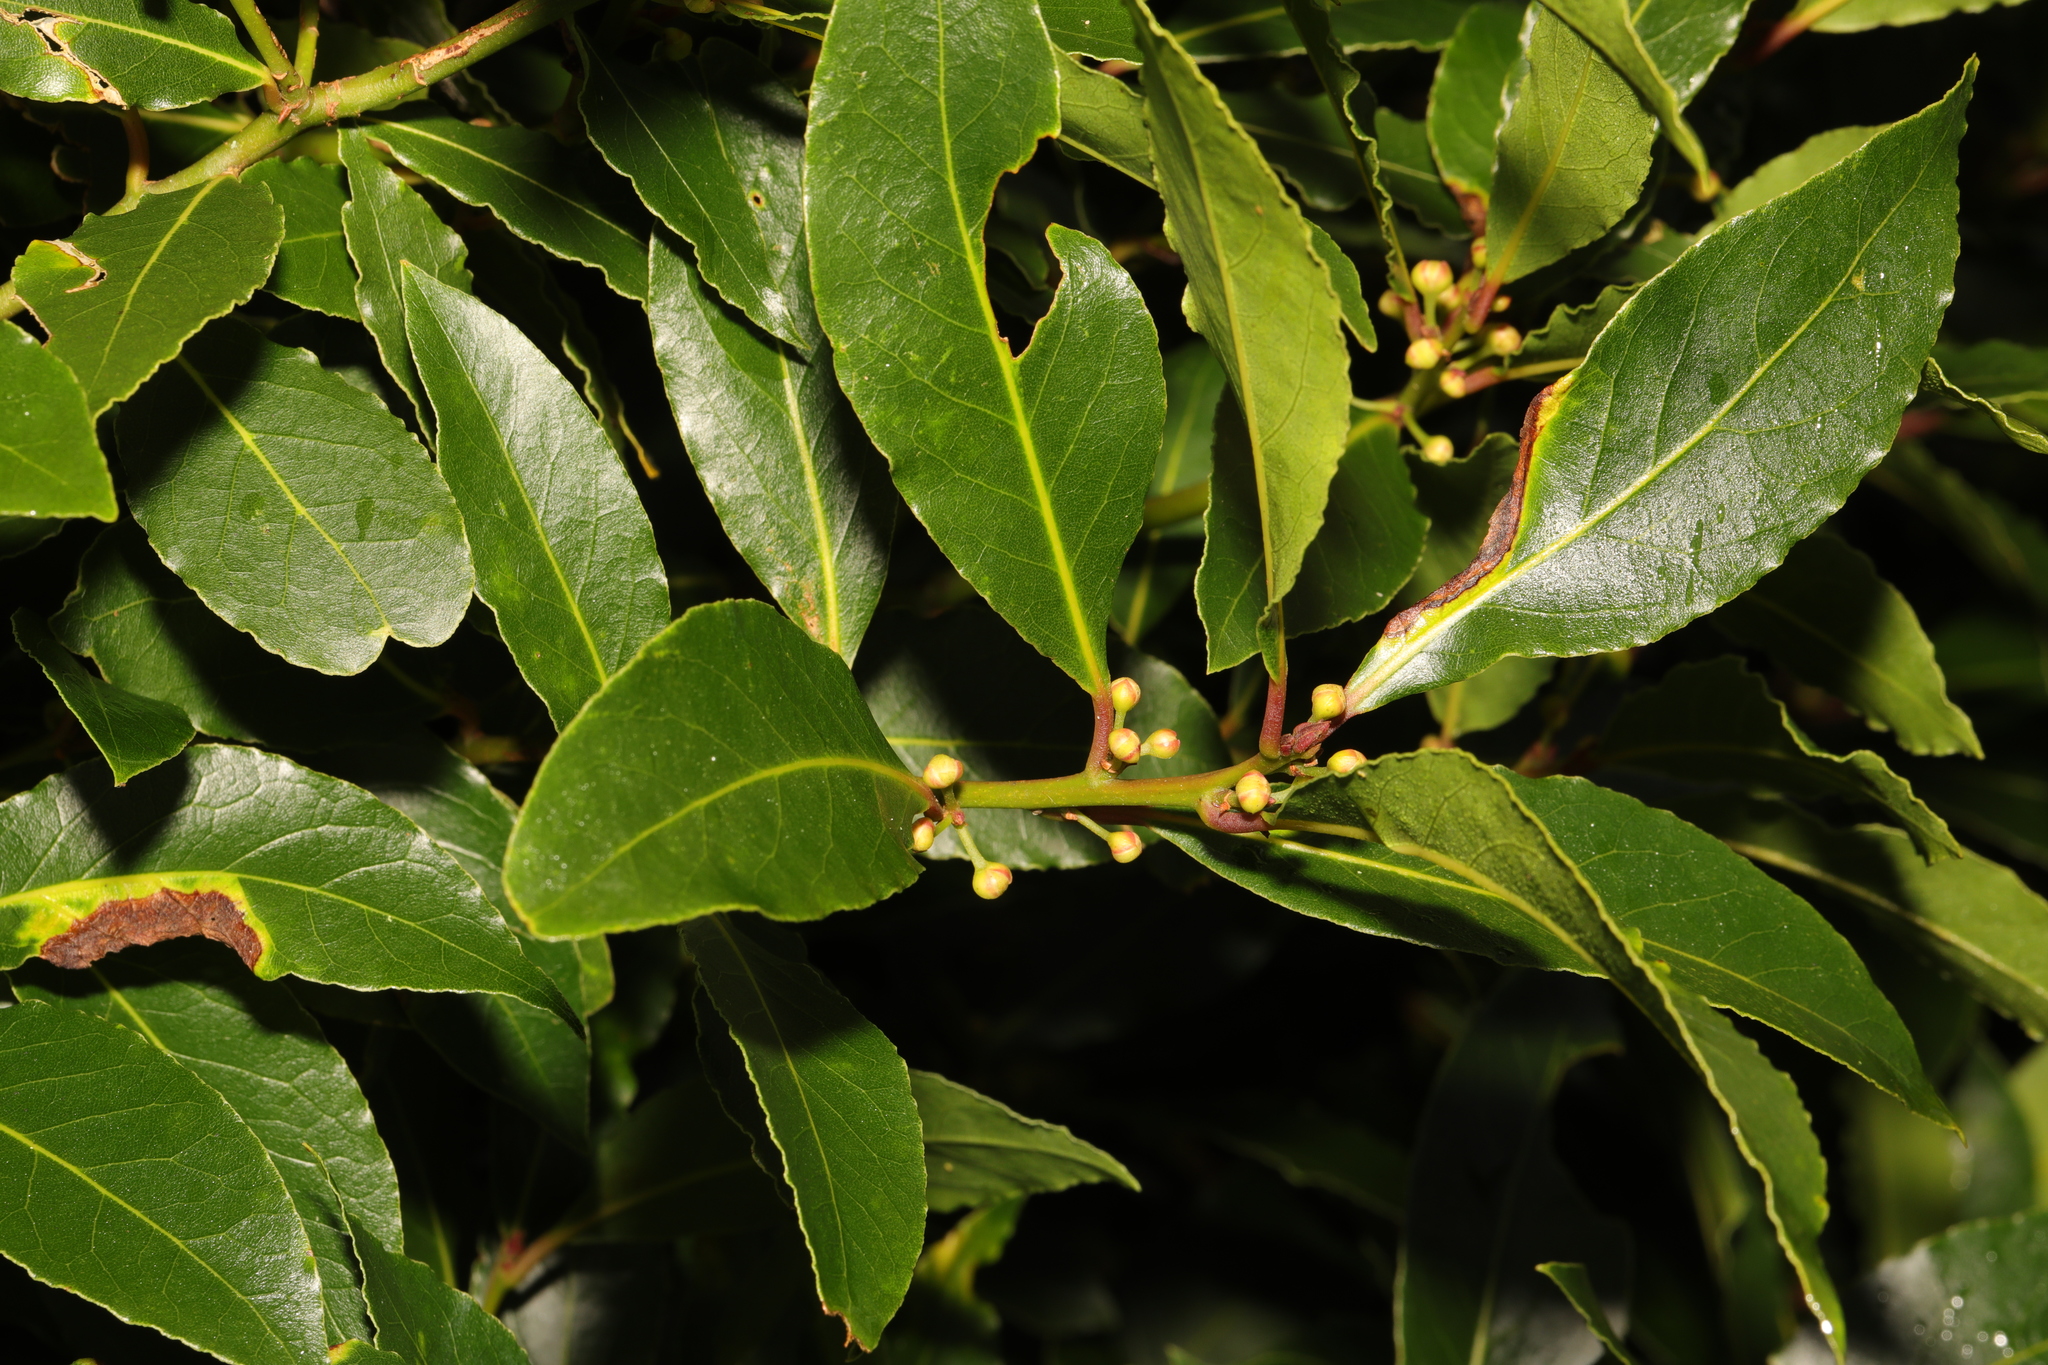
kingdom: Plantae
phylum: Tracheophyta
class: Magnoliopsida
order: Laurales
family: Lauraceae
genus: Laurus
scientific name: Laurus nobilis
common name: Bay
